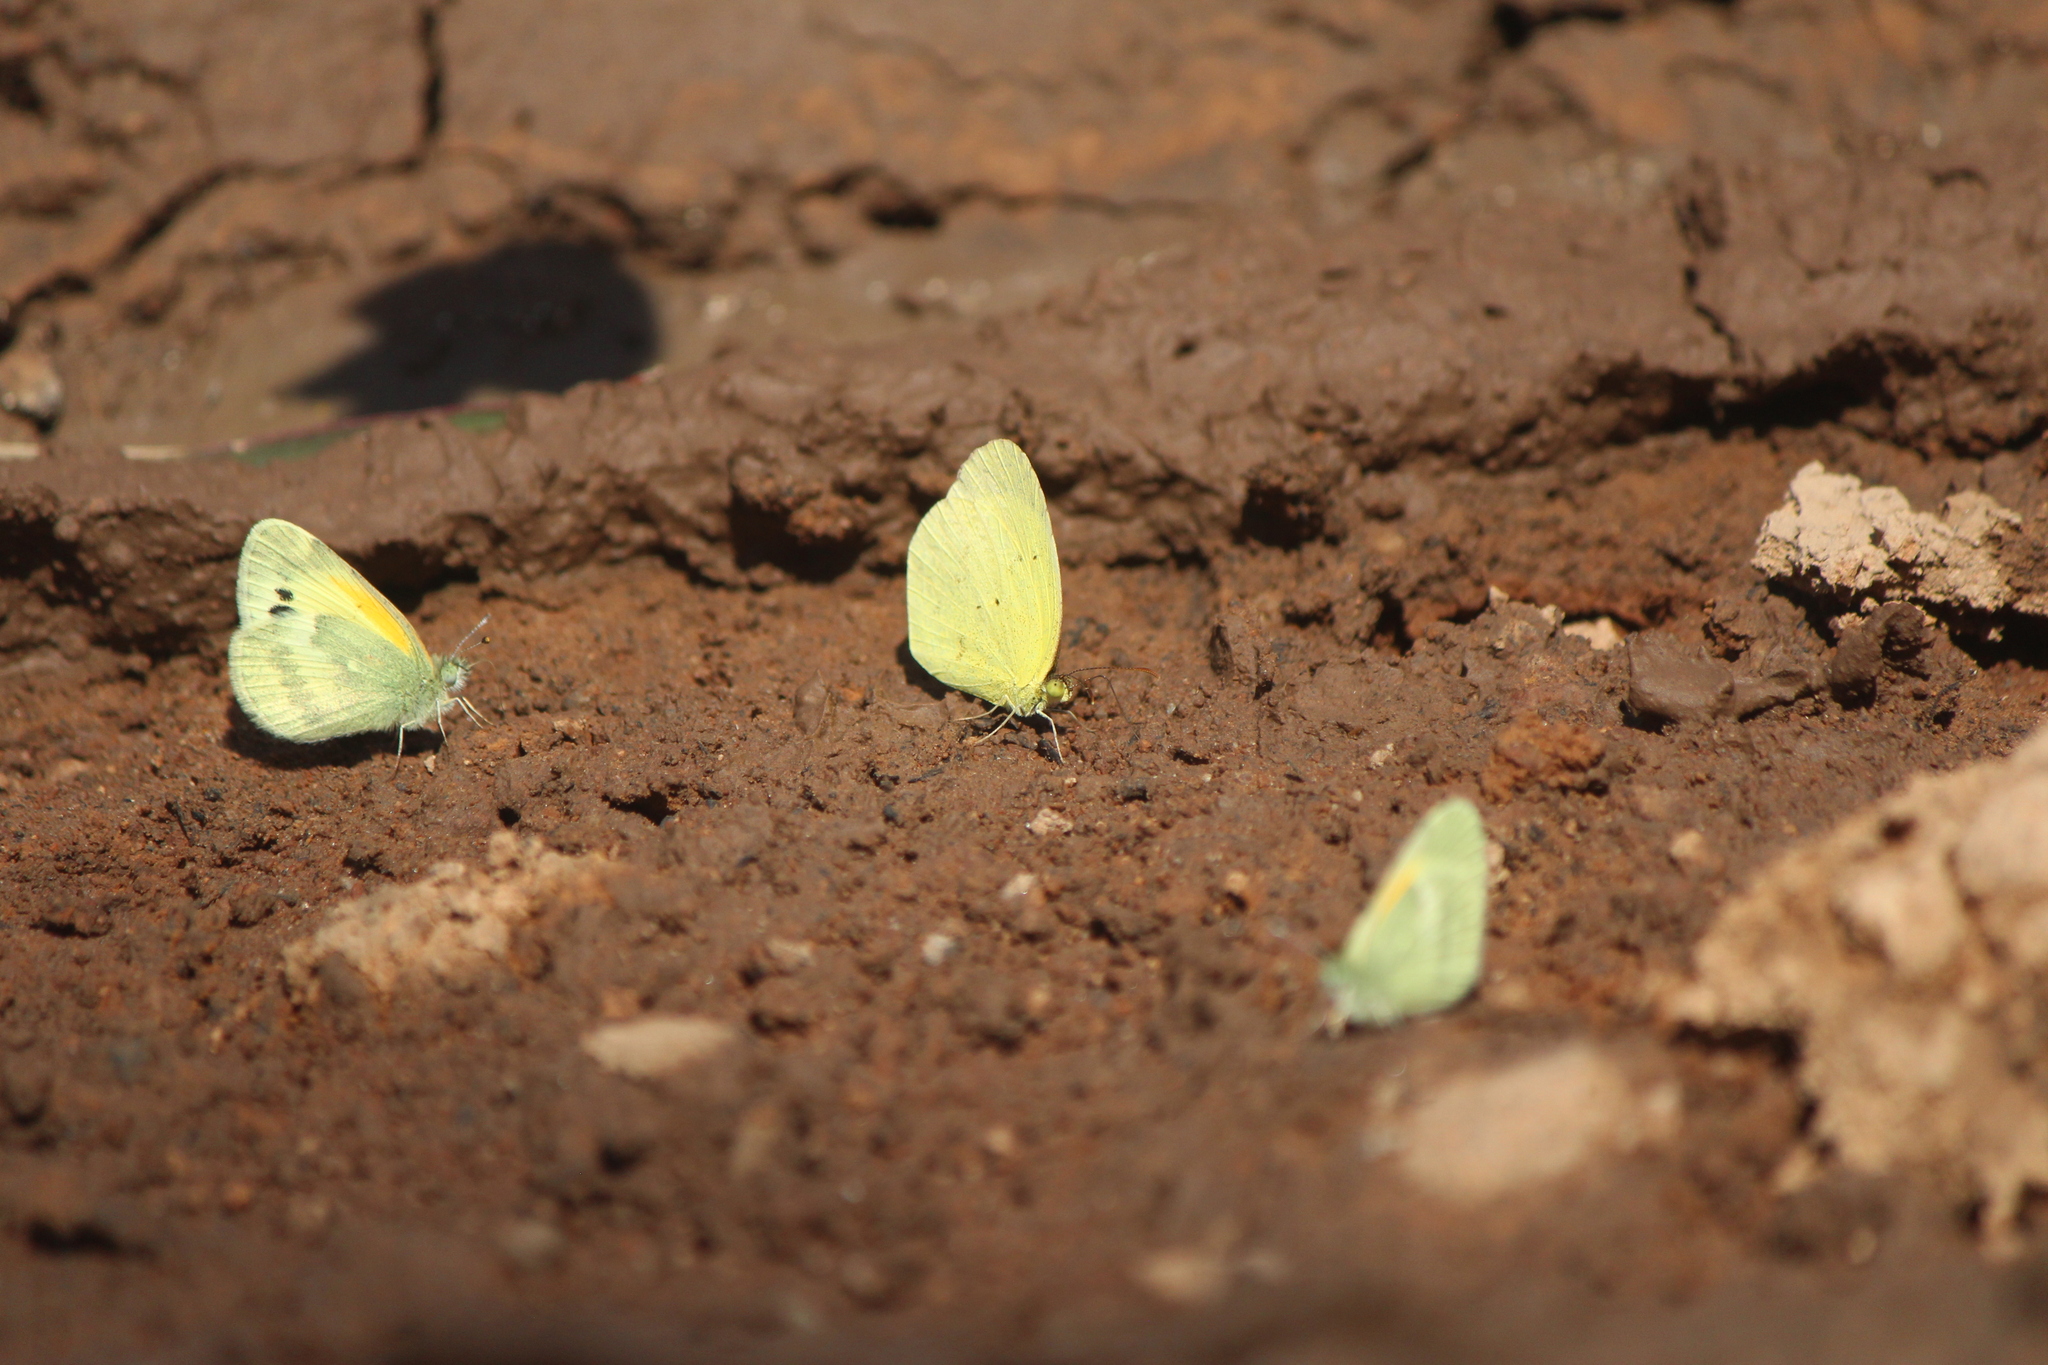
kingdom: Animalia
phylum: Arthropoda
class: Insecta
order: Lepidoptera
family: Pieridae
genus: Pyrisitia
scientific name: Pyrisitia nise
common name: Mimosa yellow
